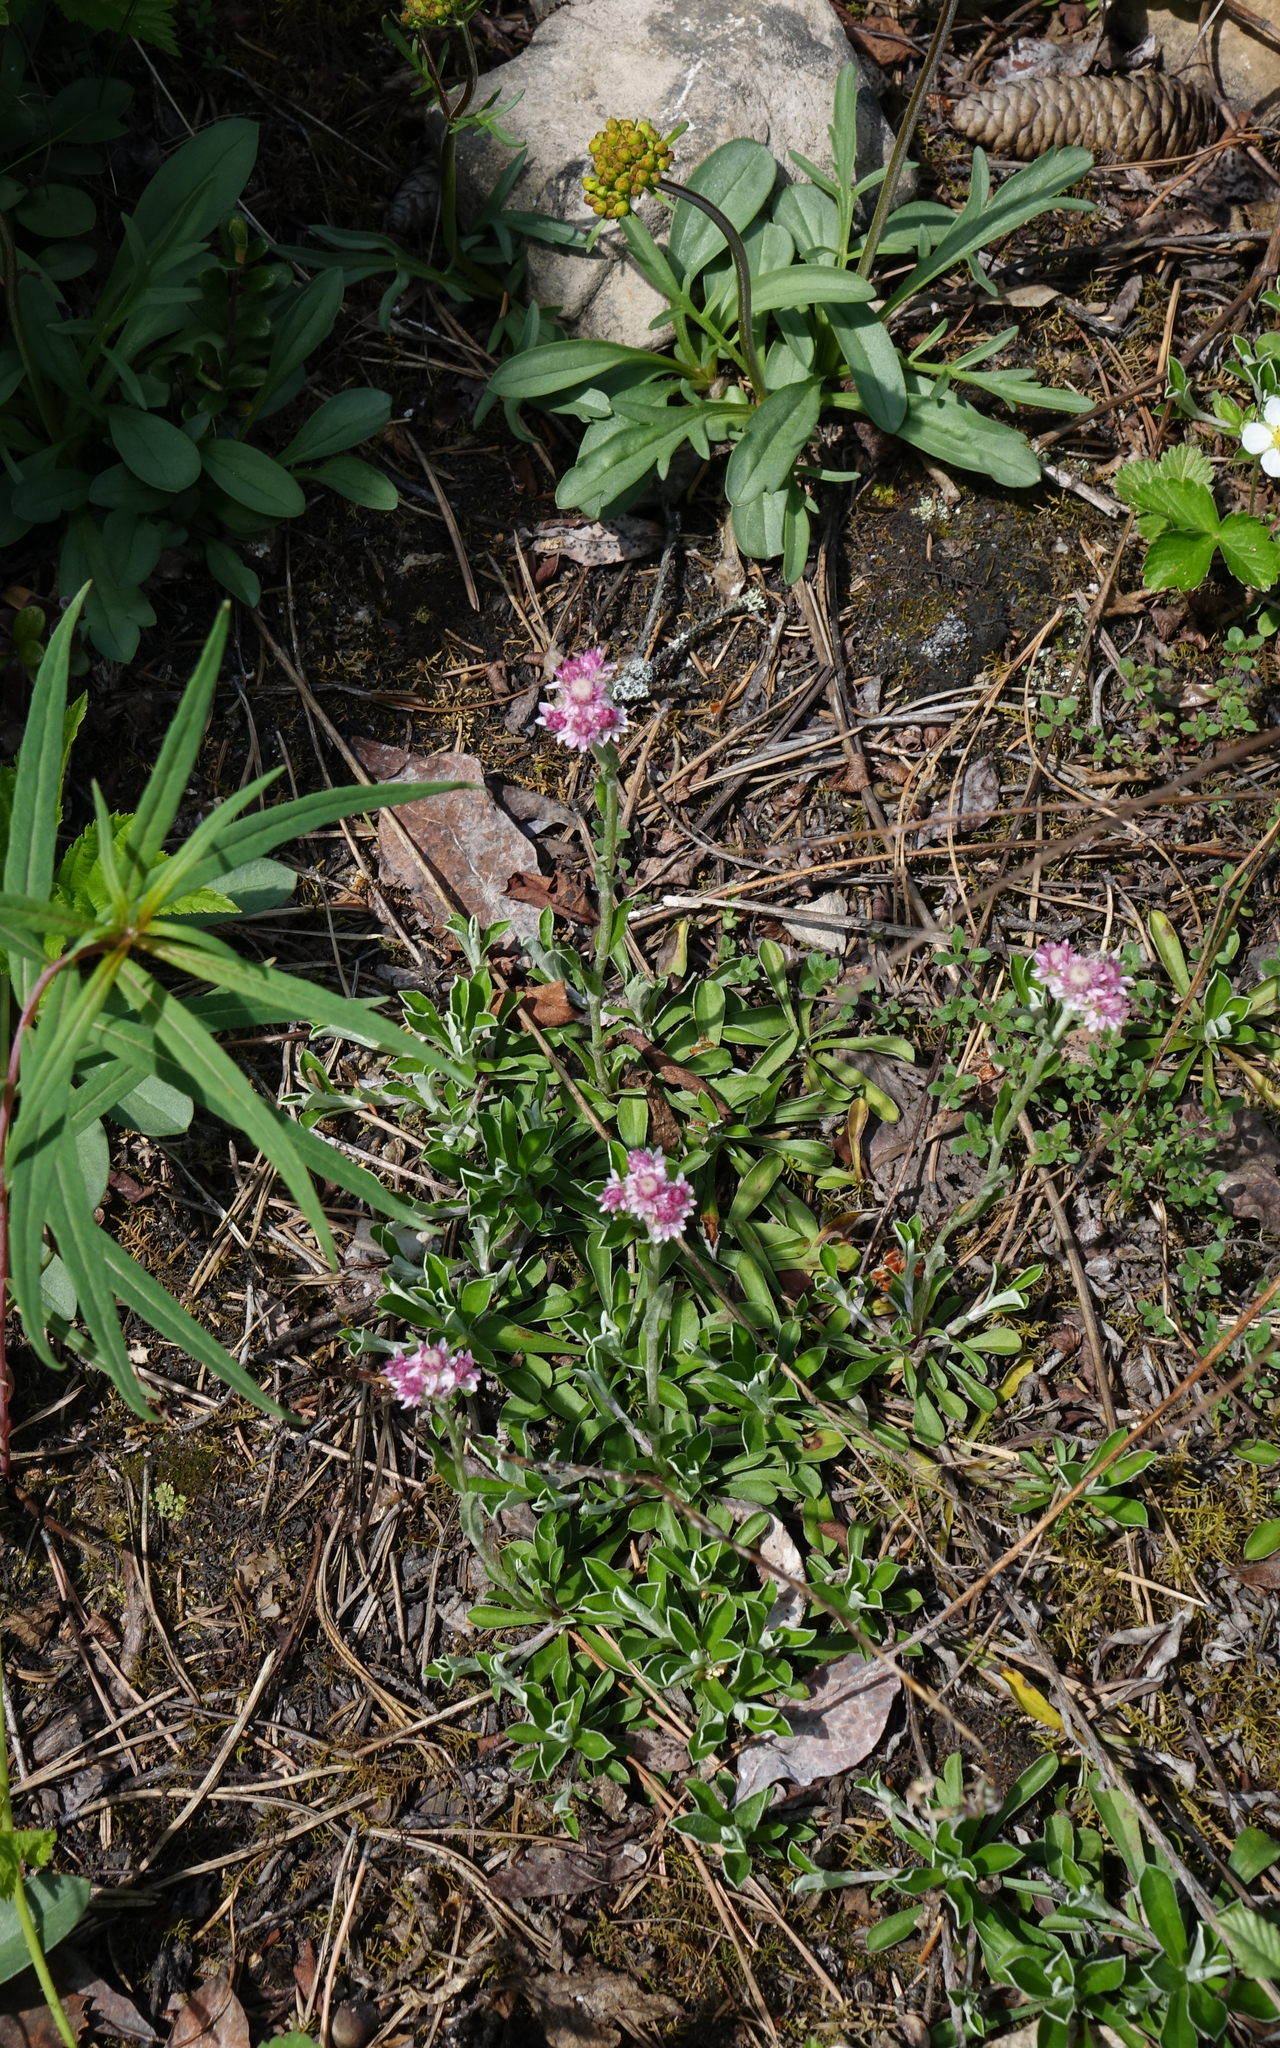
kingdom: Plantae
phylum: Tracheophyta
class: Magnoliopsida
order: Asterales
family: Asteraceae
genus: Antennaria
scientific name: Antennaria dioica
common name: Mountain everlasting
